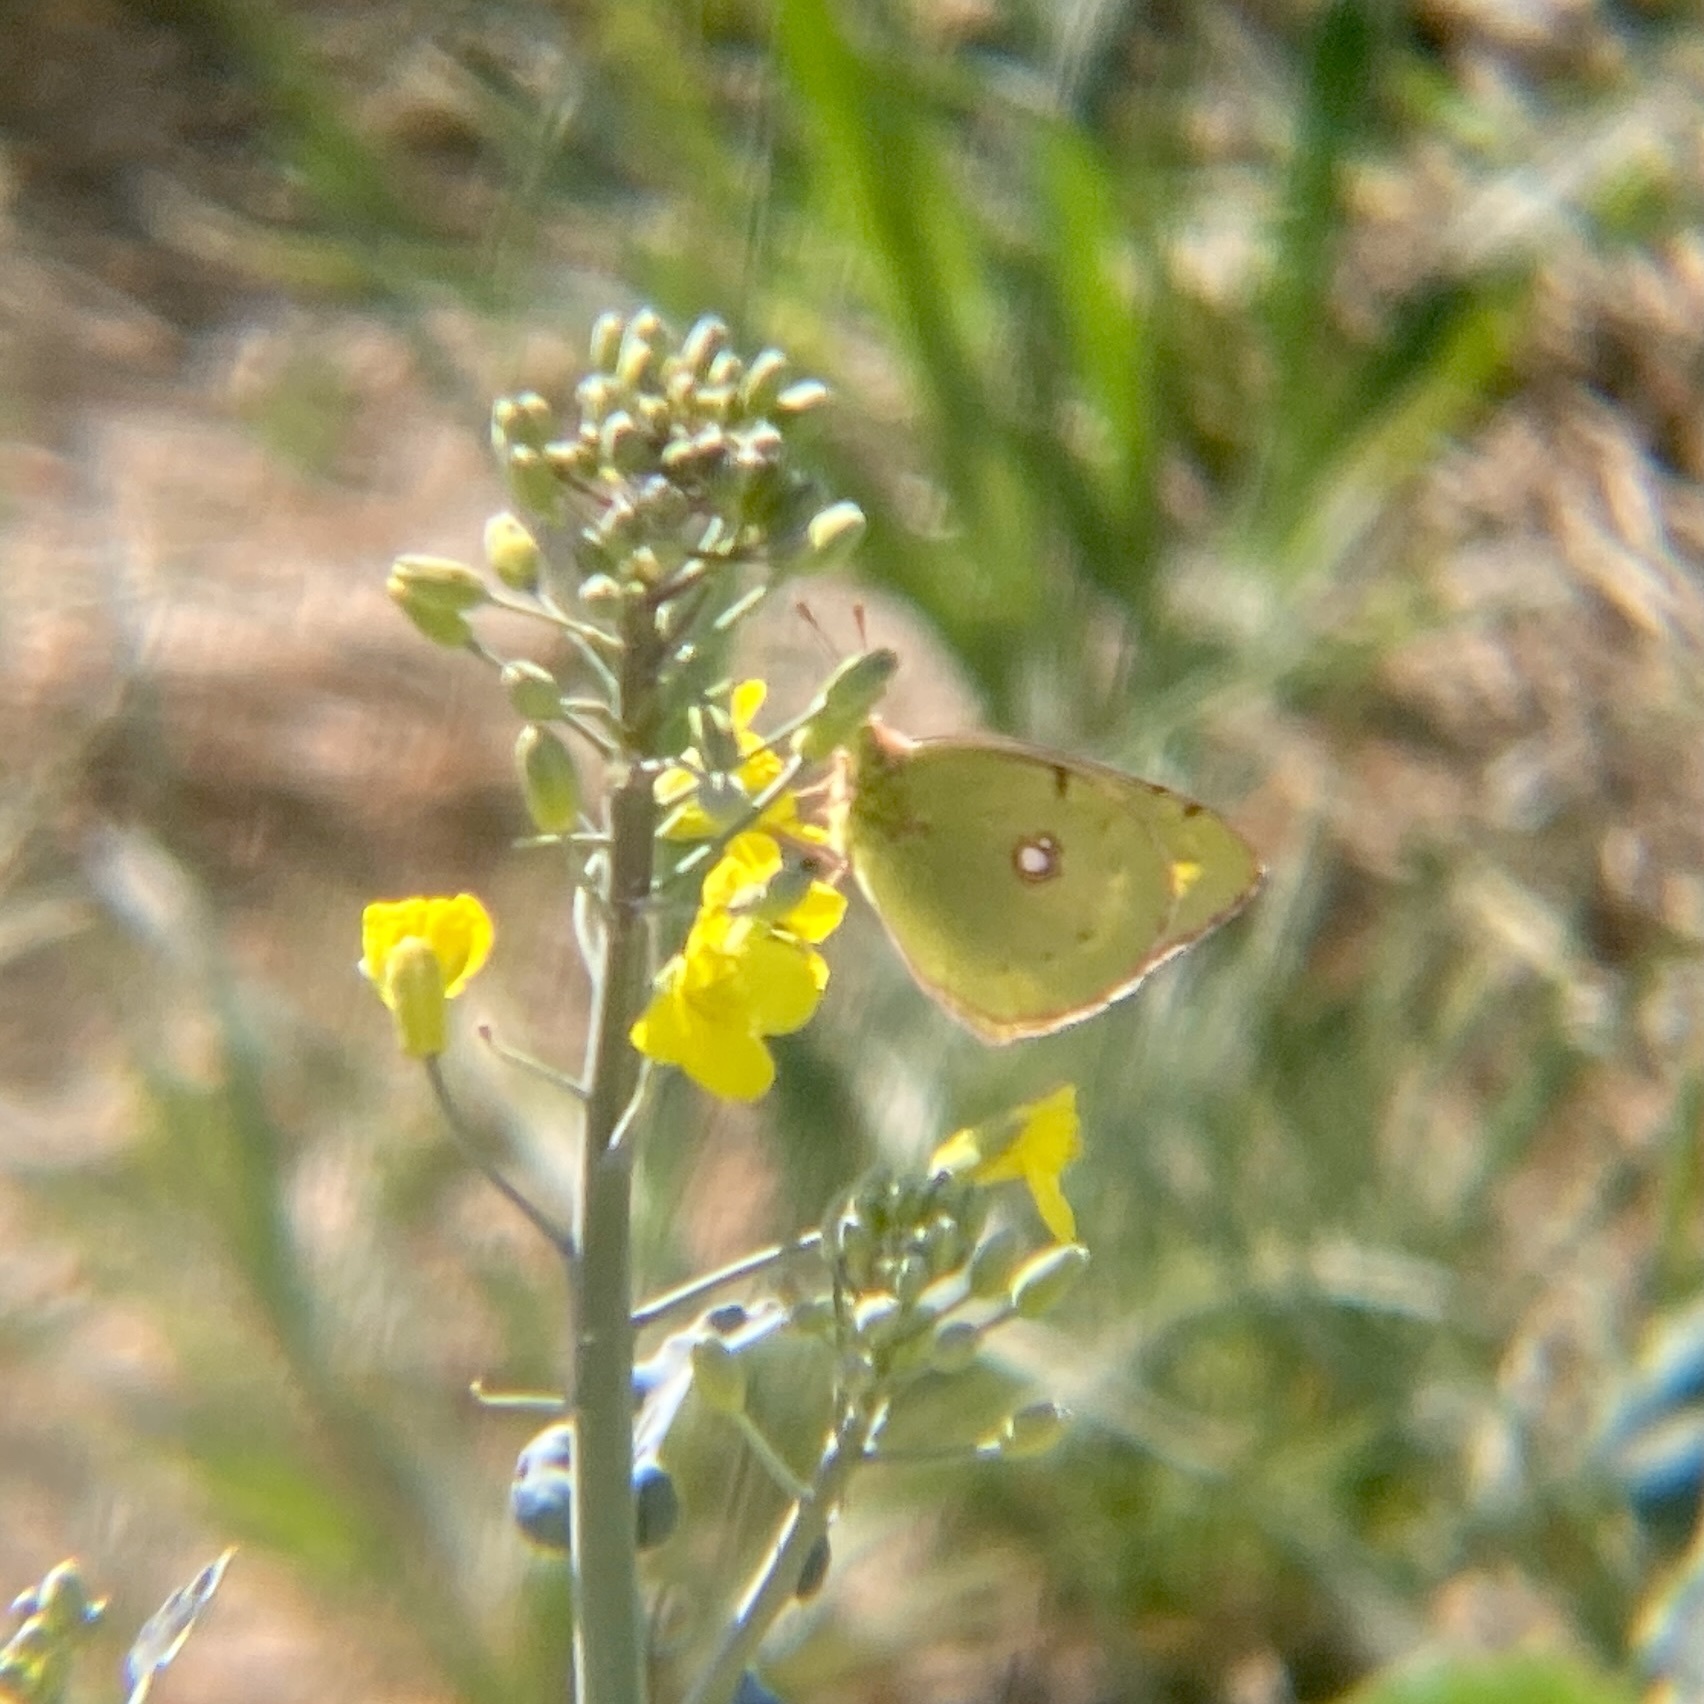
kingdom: Animalia
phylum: Arthropoda
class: Insecta
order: Lepidoptera
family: Pieridae
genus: Colias
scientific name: Colias croceus
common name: Clouded yellow
